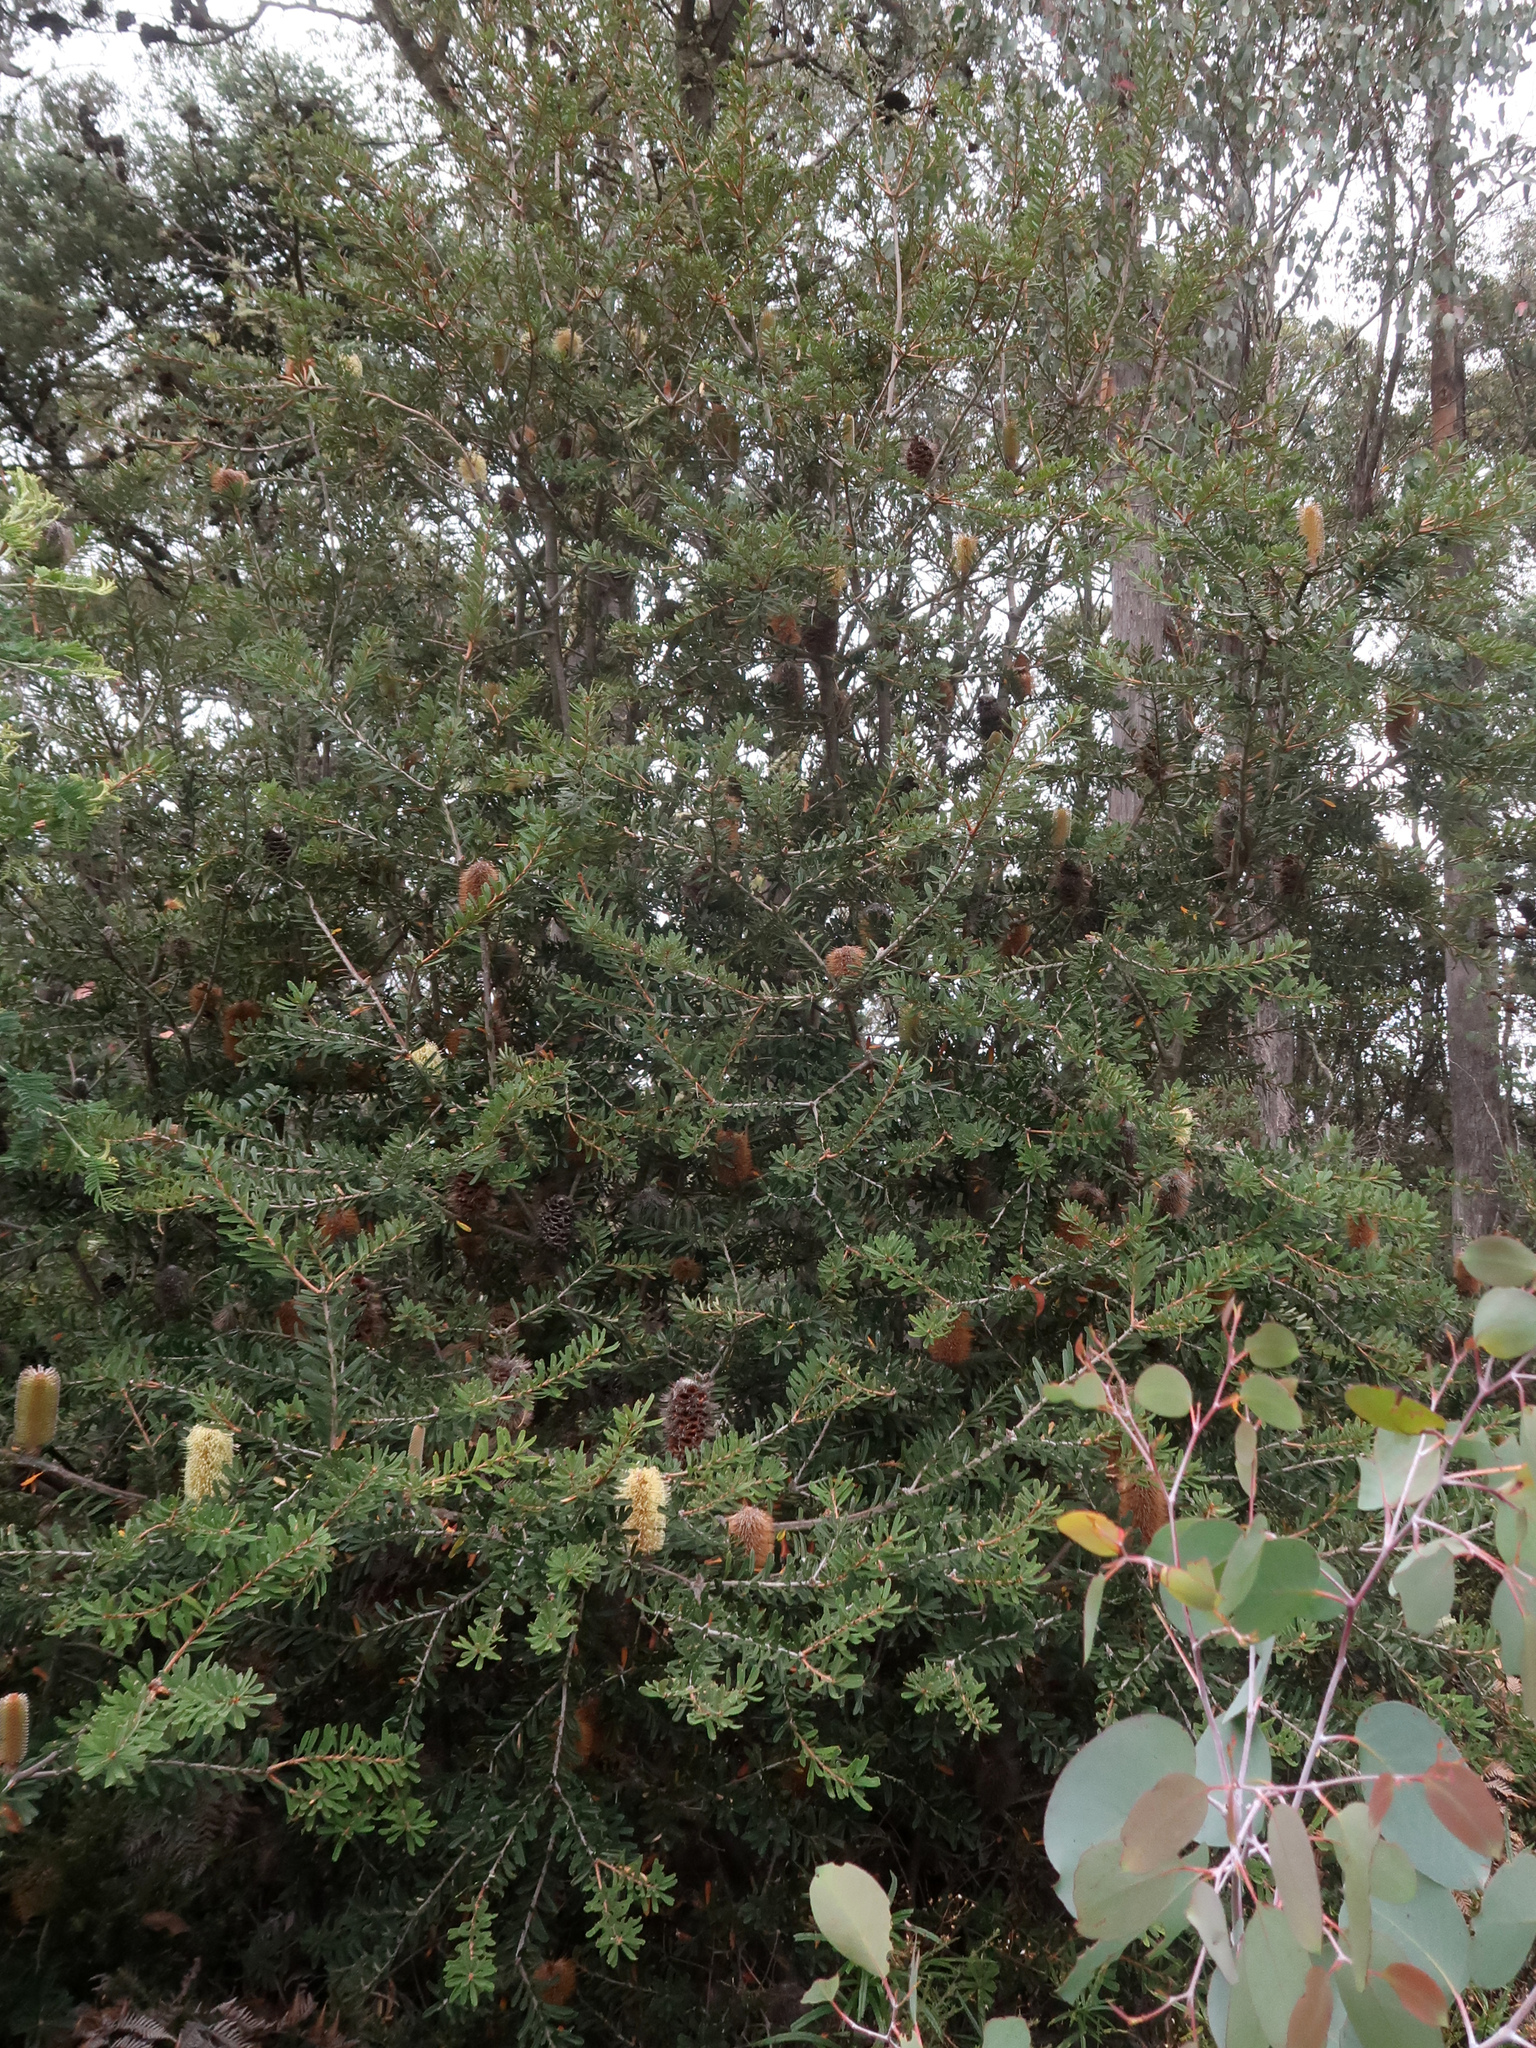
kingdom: Plantae
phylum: Tracheophyta
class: Magnoliopsida
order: Proteales
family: Proteaceae
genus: Banksia
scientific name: Banksia marginata
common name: Silver banksia
